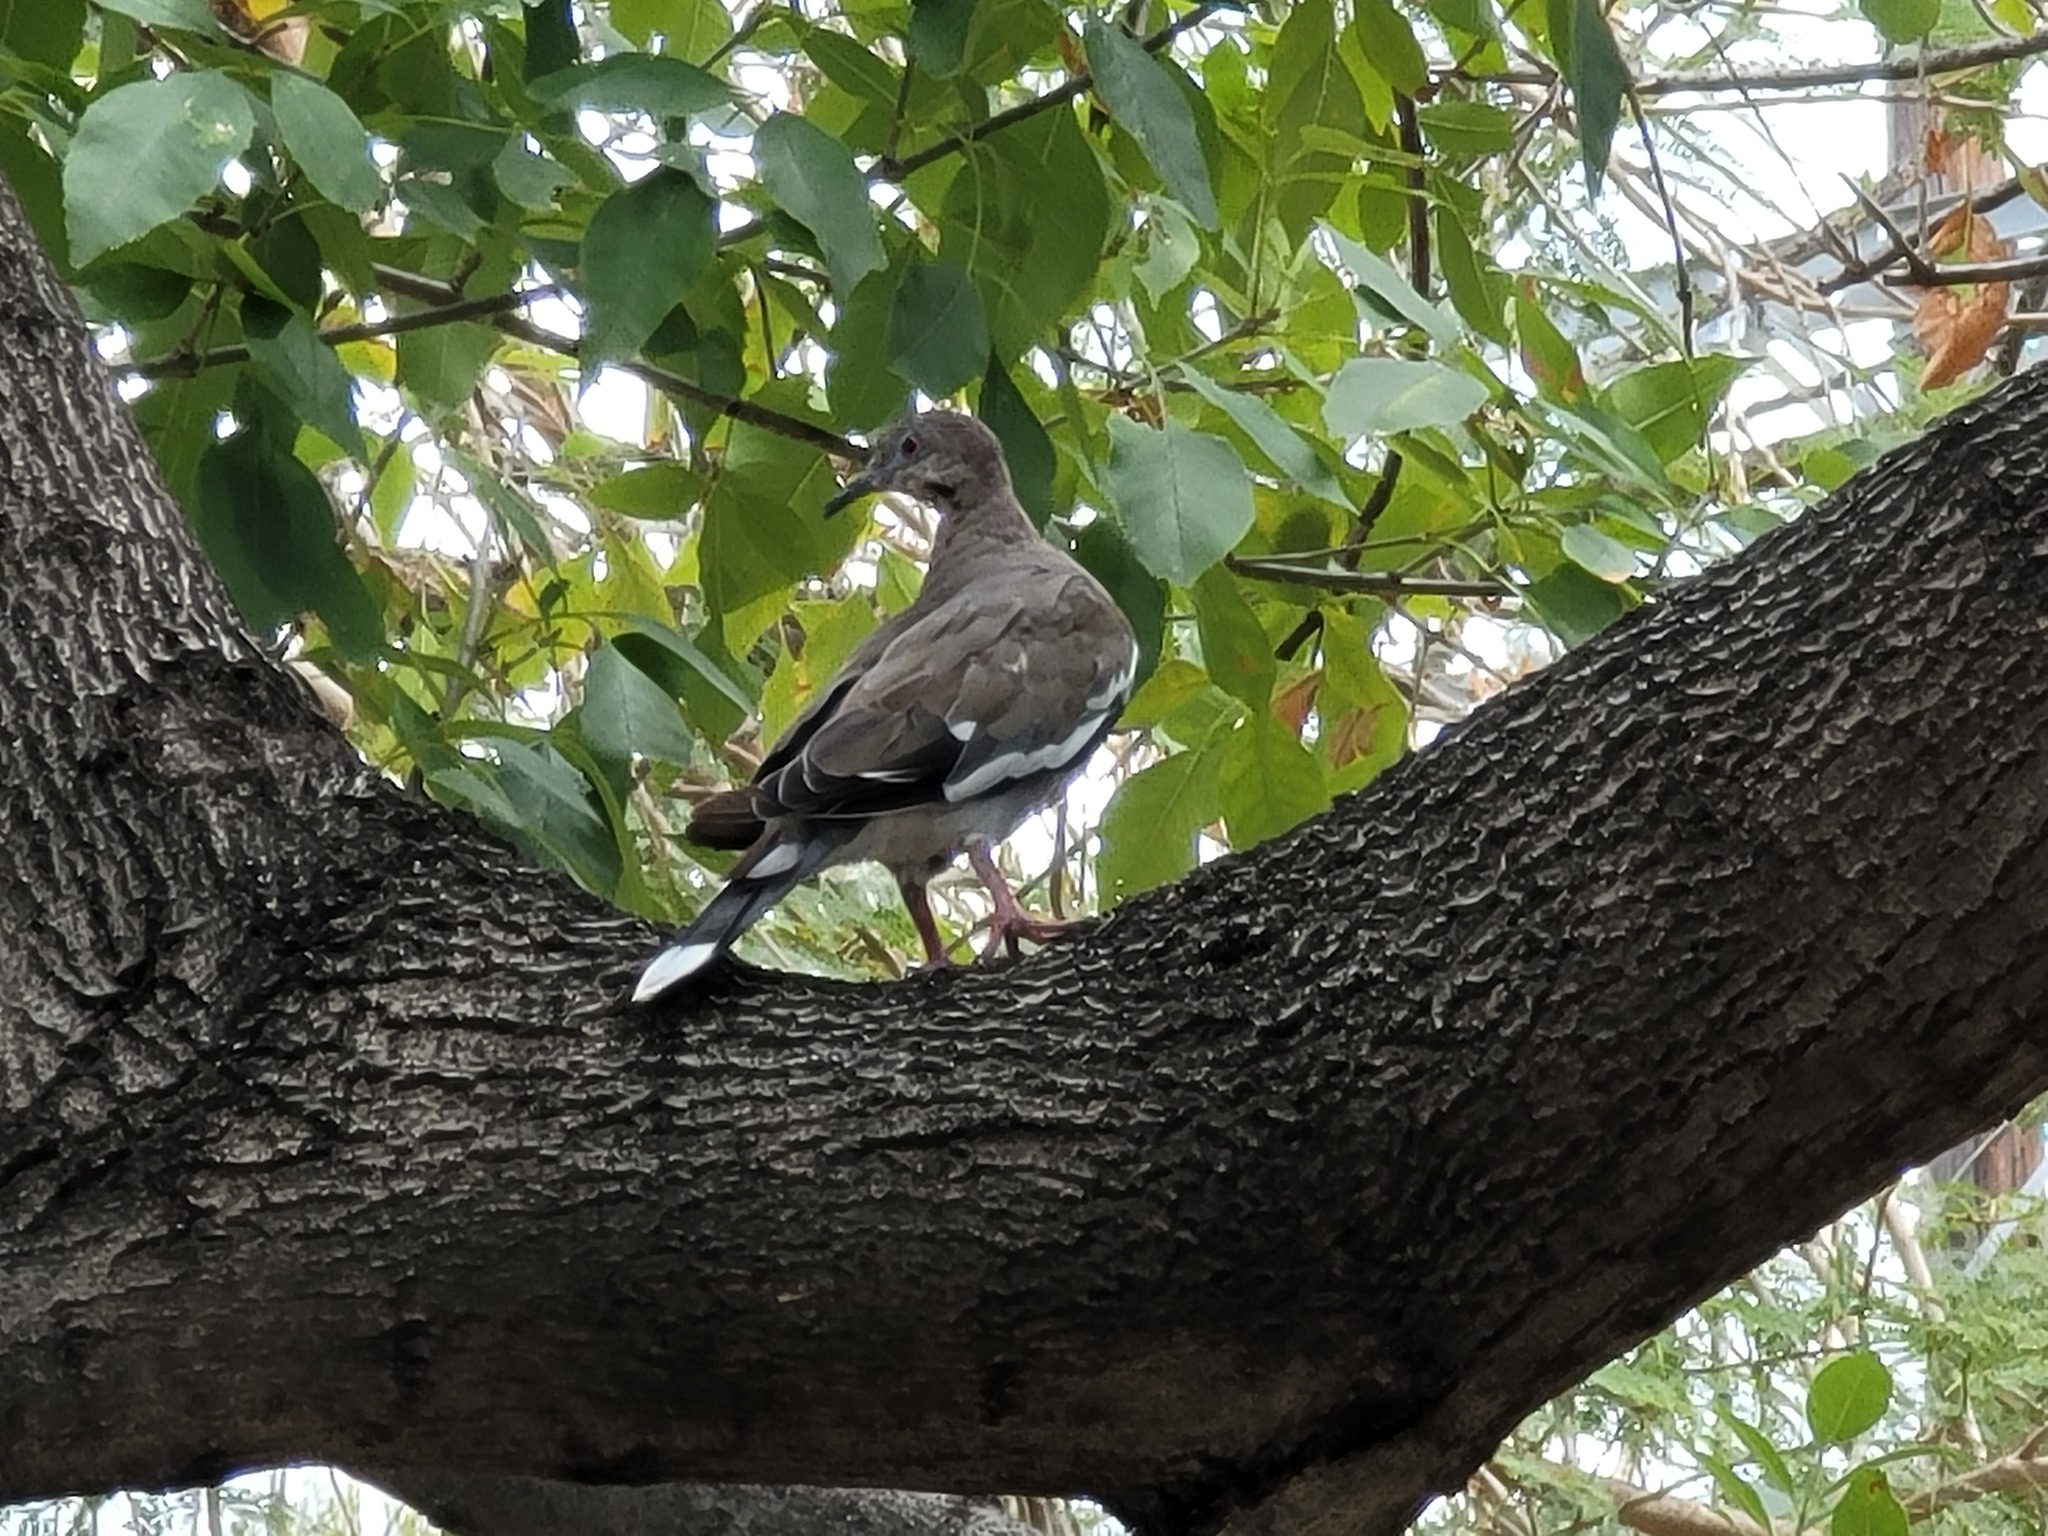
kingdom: Animalia
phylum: Chordata
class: Aves
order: Columbiformes
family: Columbidae
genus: Zenaida
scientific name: Zenaida asiatica
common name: White-winged dove
